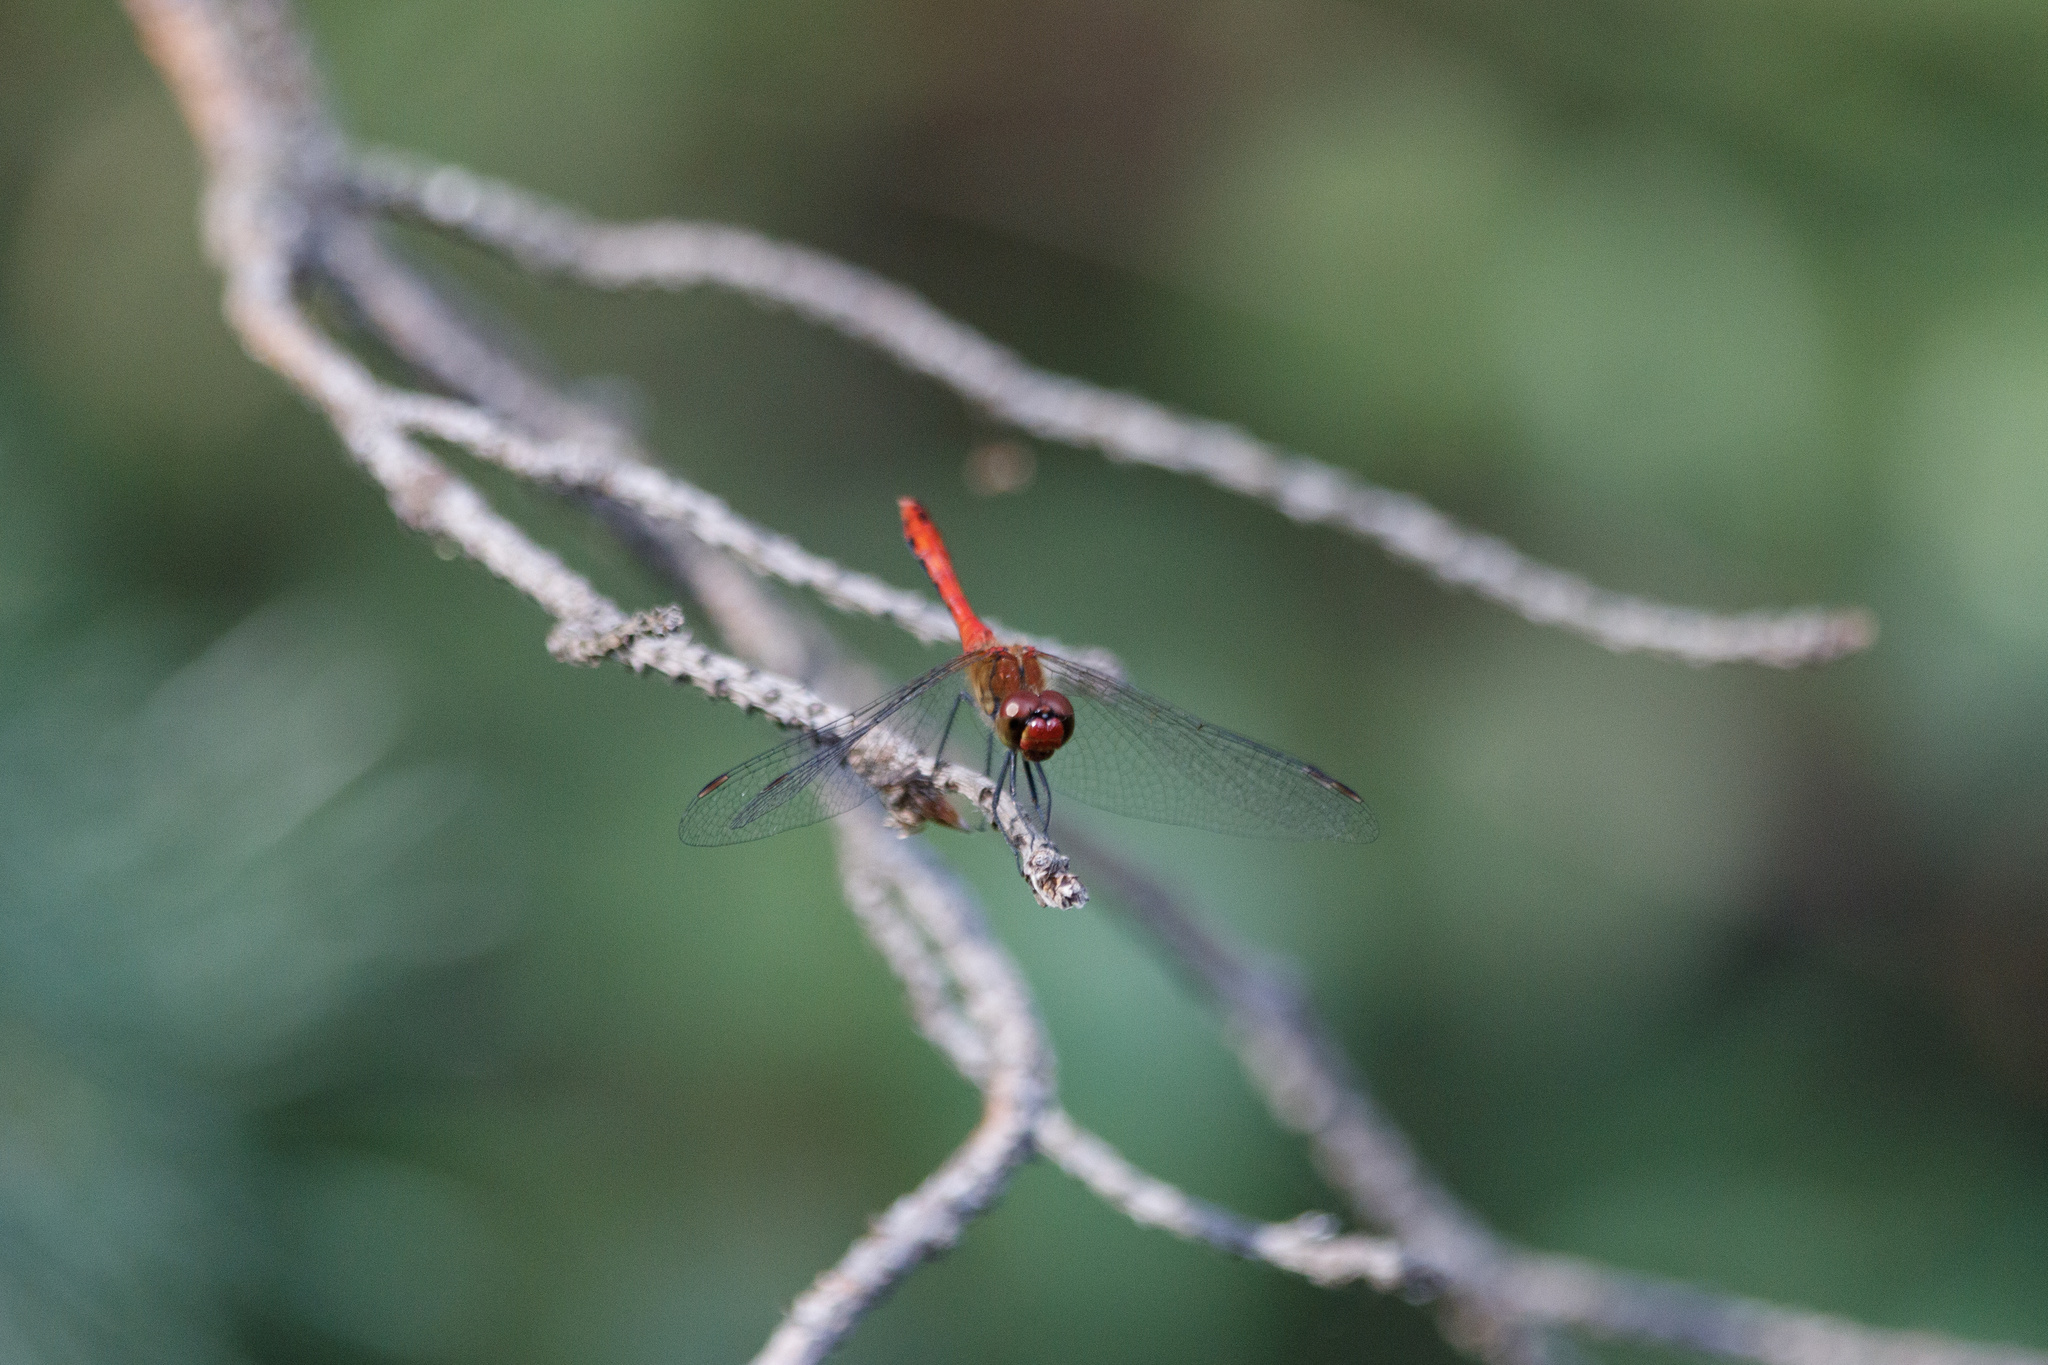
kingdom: Animalia
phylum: Arthropoda
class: Insecta
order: Odonata
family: Libellulidae
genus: Sympetrum
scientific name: Sympetrum sanguineum
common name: Ruddy darter
